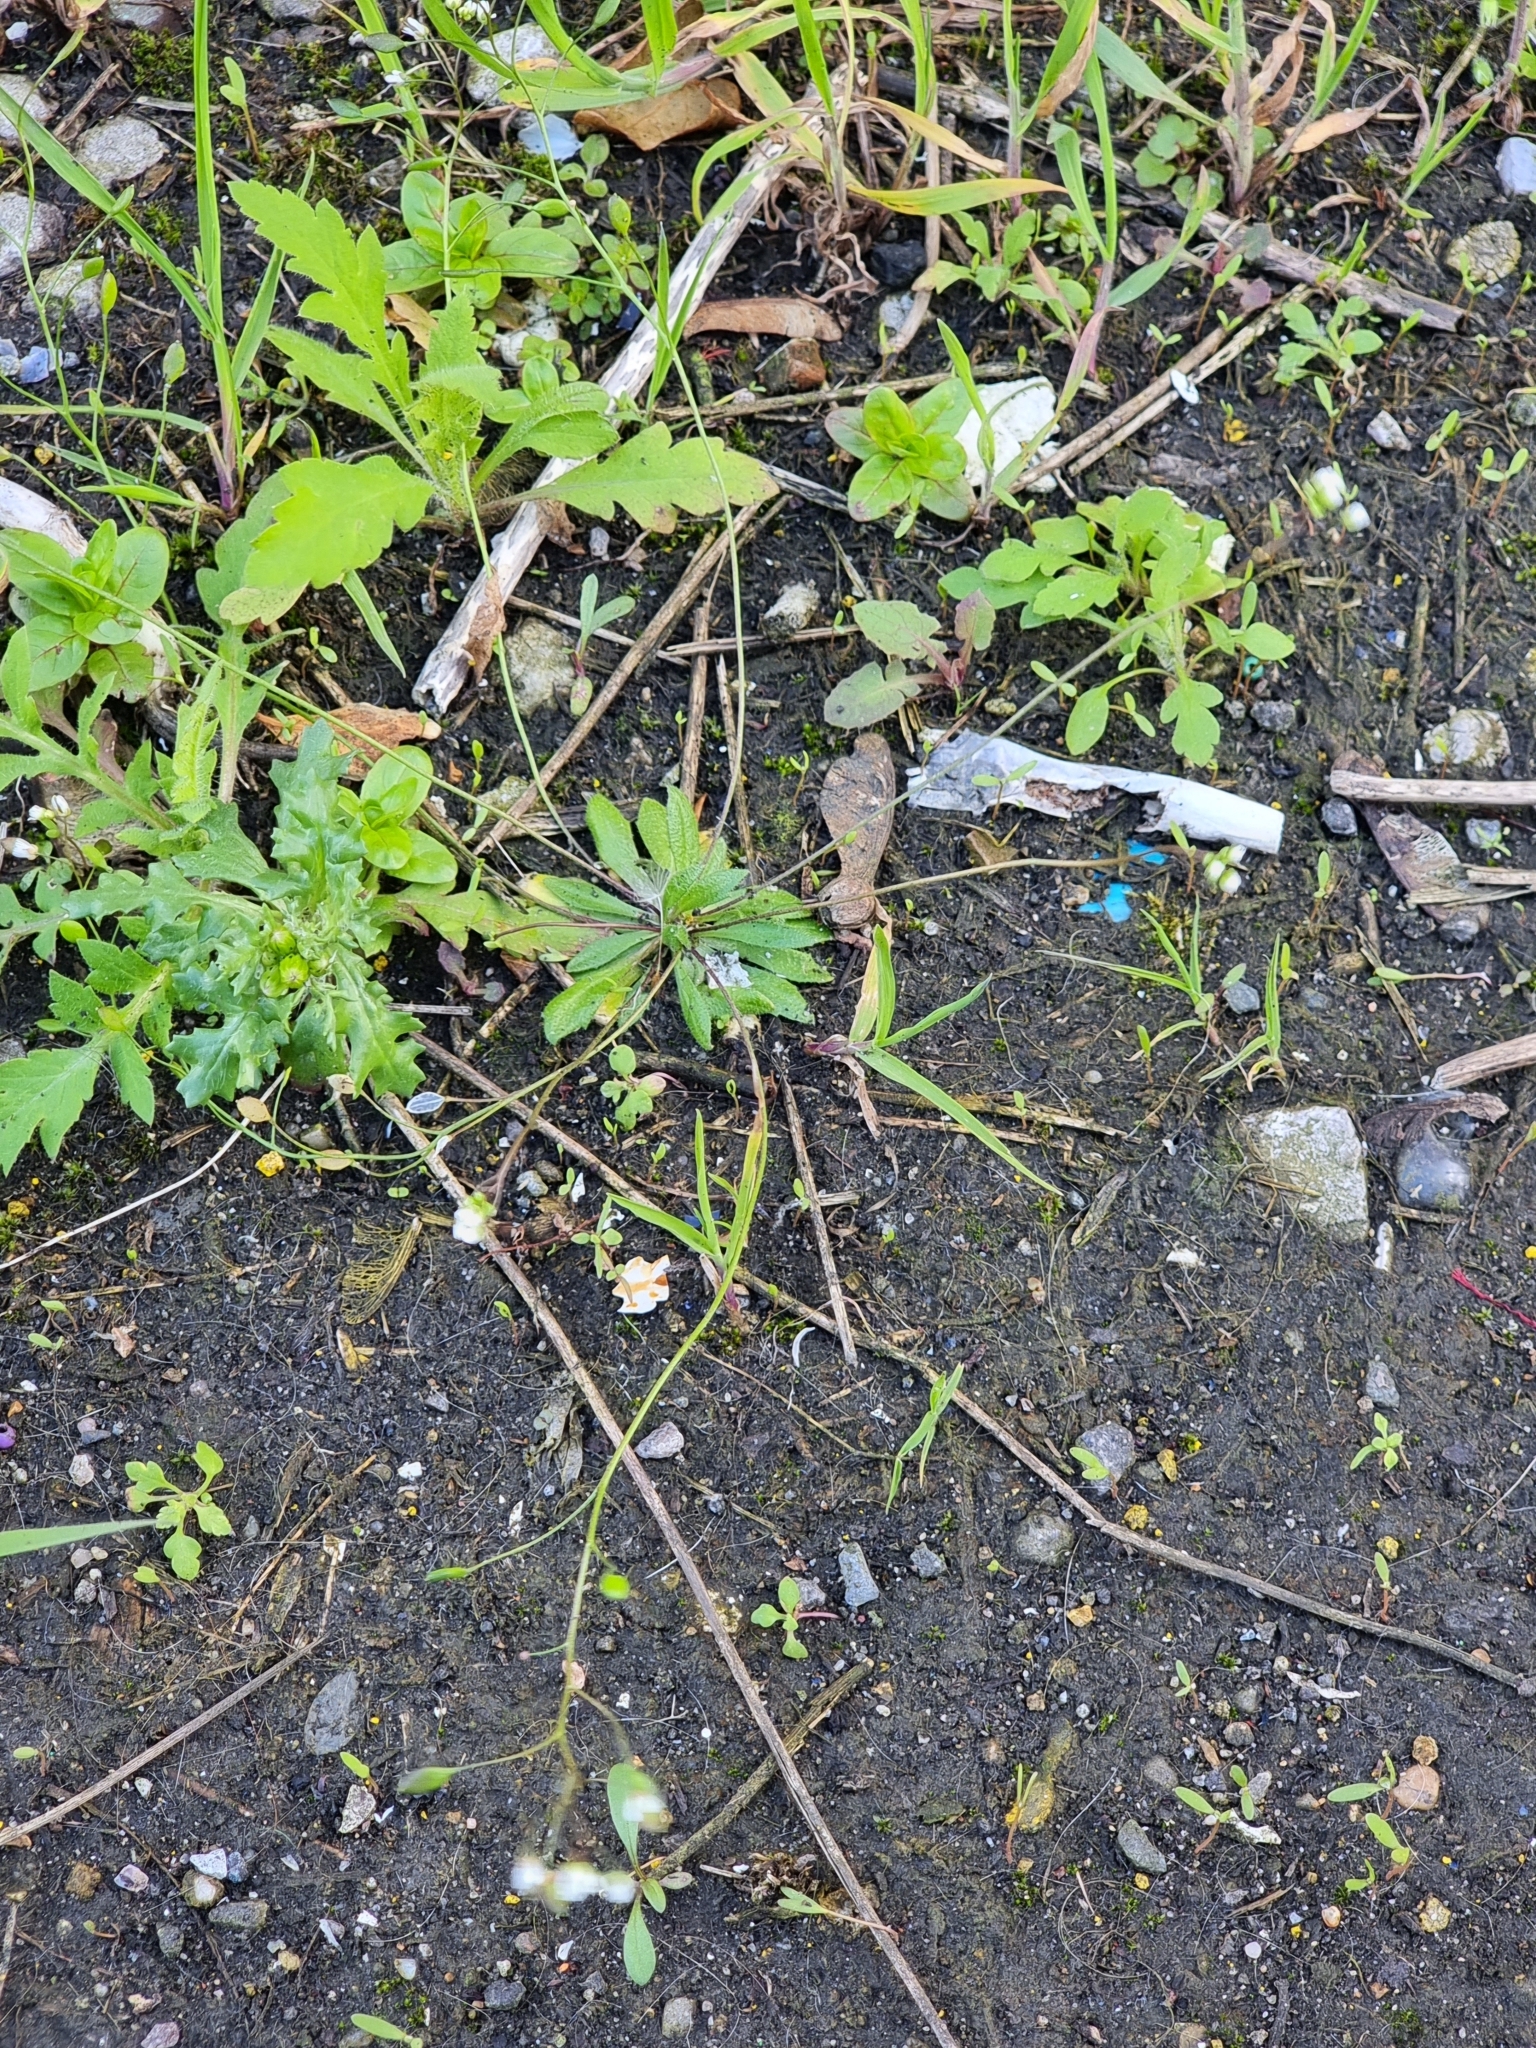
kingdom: Plantae
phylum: Tracheophyta
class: Magnoliopsida
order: Brassicales
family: Brassicaceae
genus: Draba
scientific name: Draba verna
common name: Spring draba
